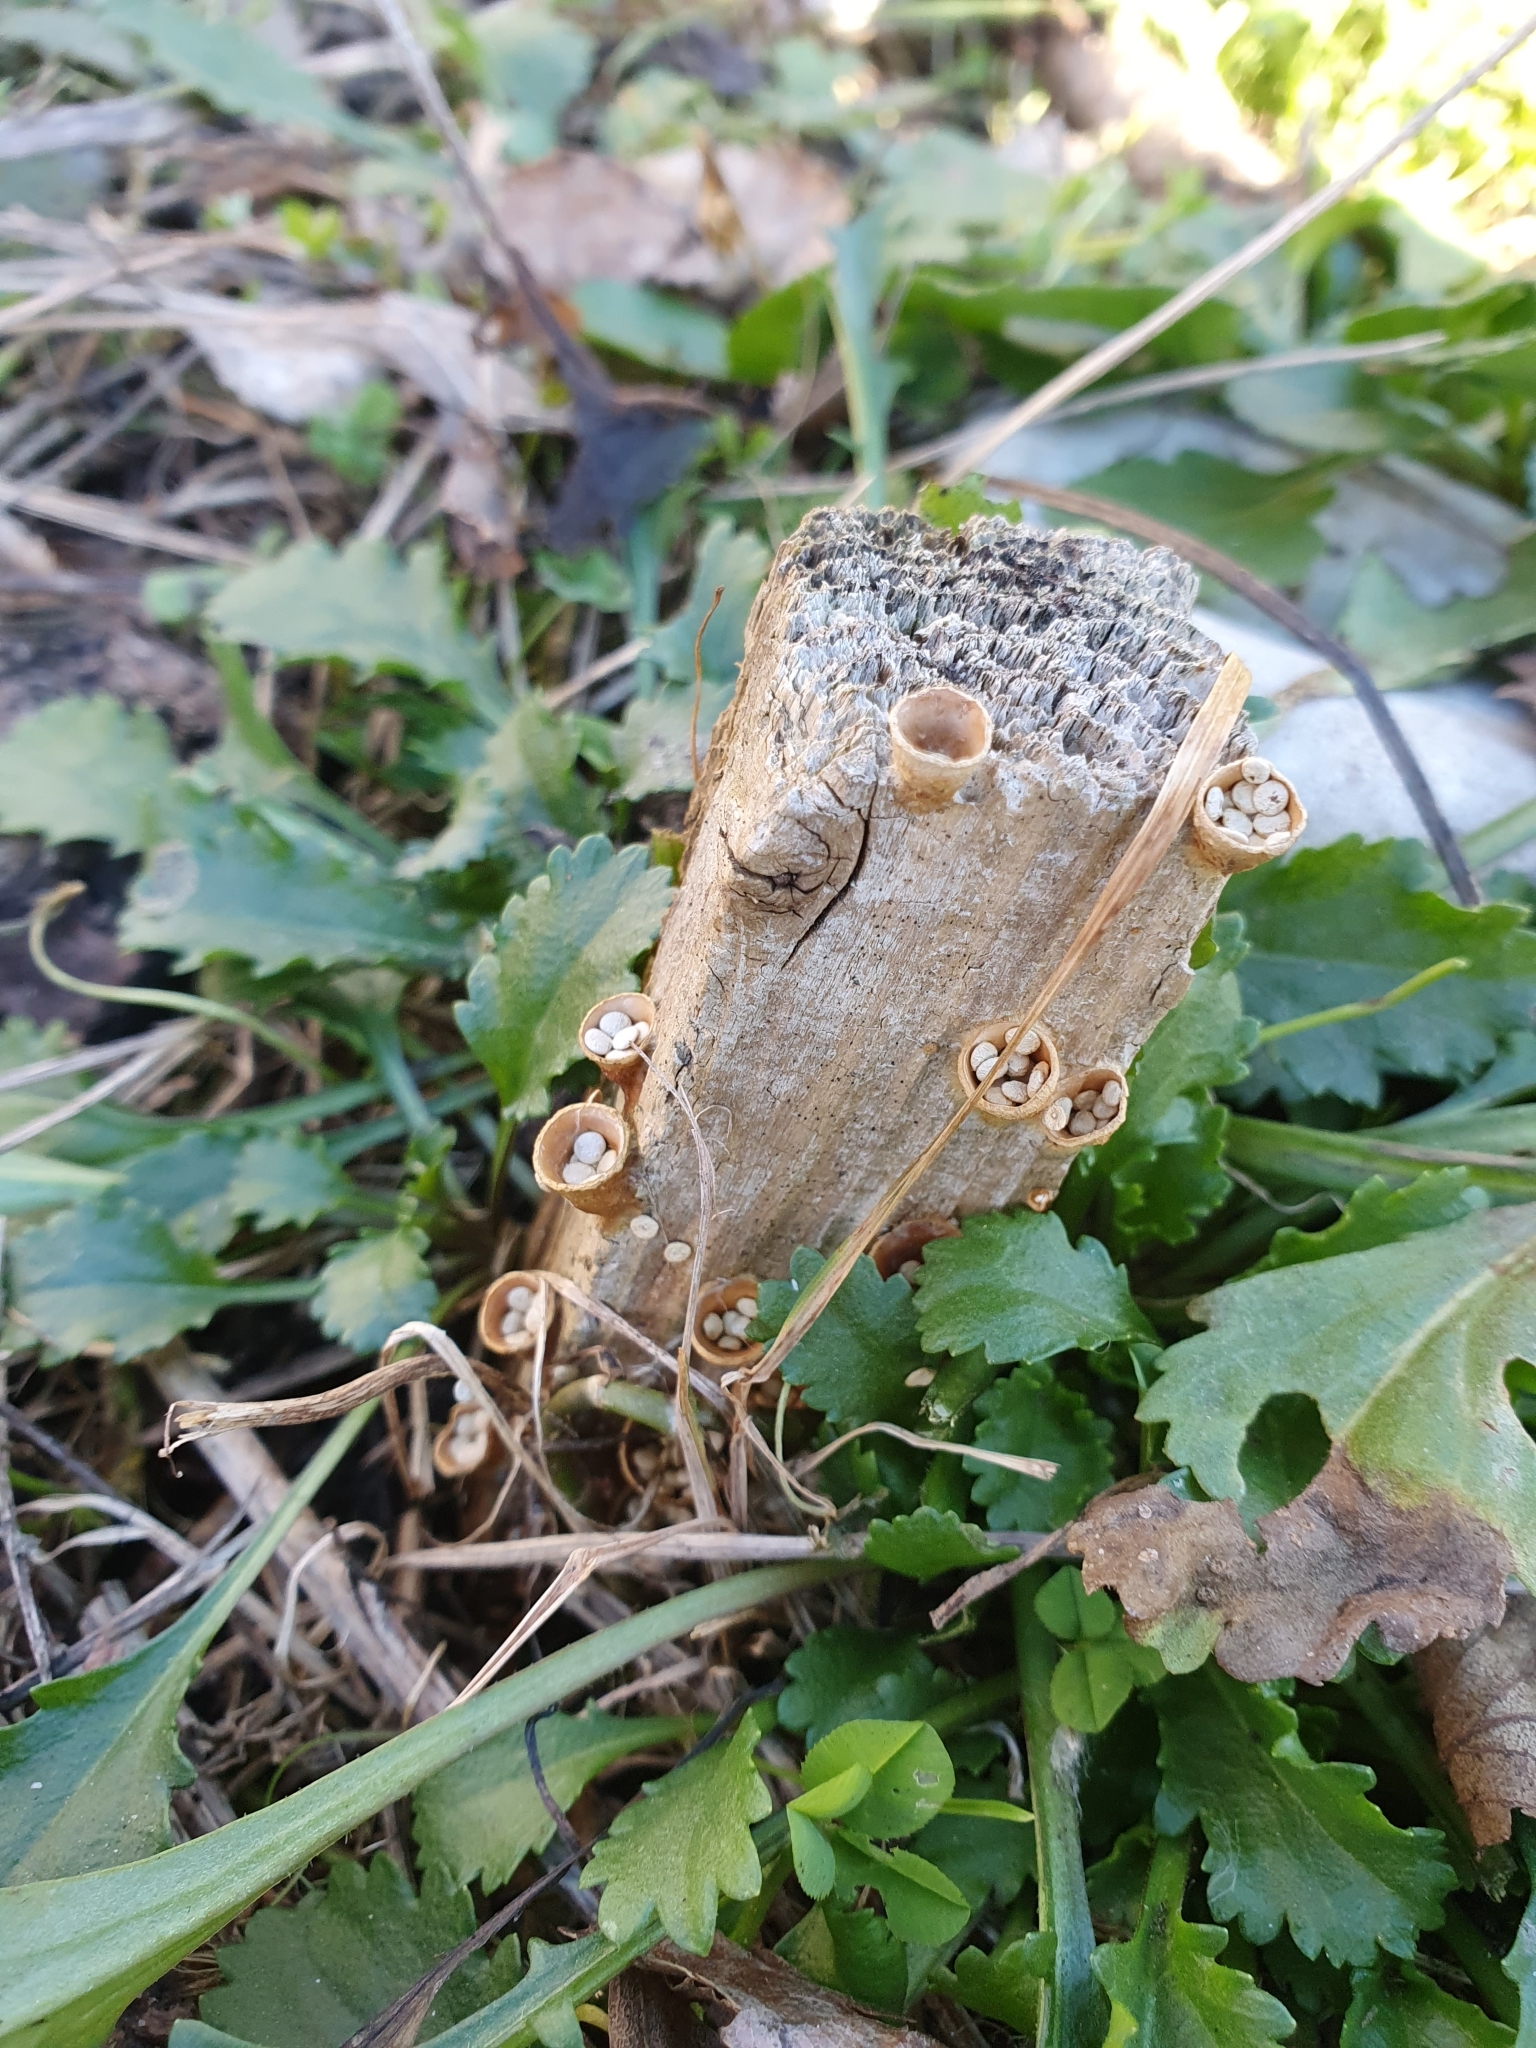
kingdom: Fungi
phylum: Basidiomycota
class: Agaricomycetes
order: Agaricales
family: Nidulariaceae
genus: Crucibulum
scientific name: Crucibulum laeve
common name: Common bird's nest
